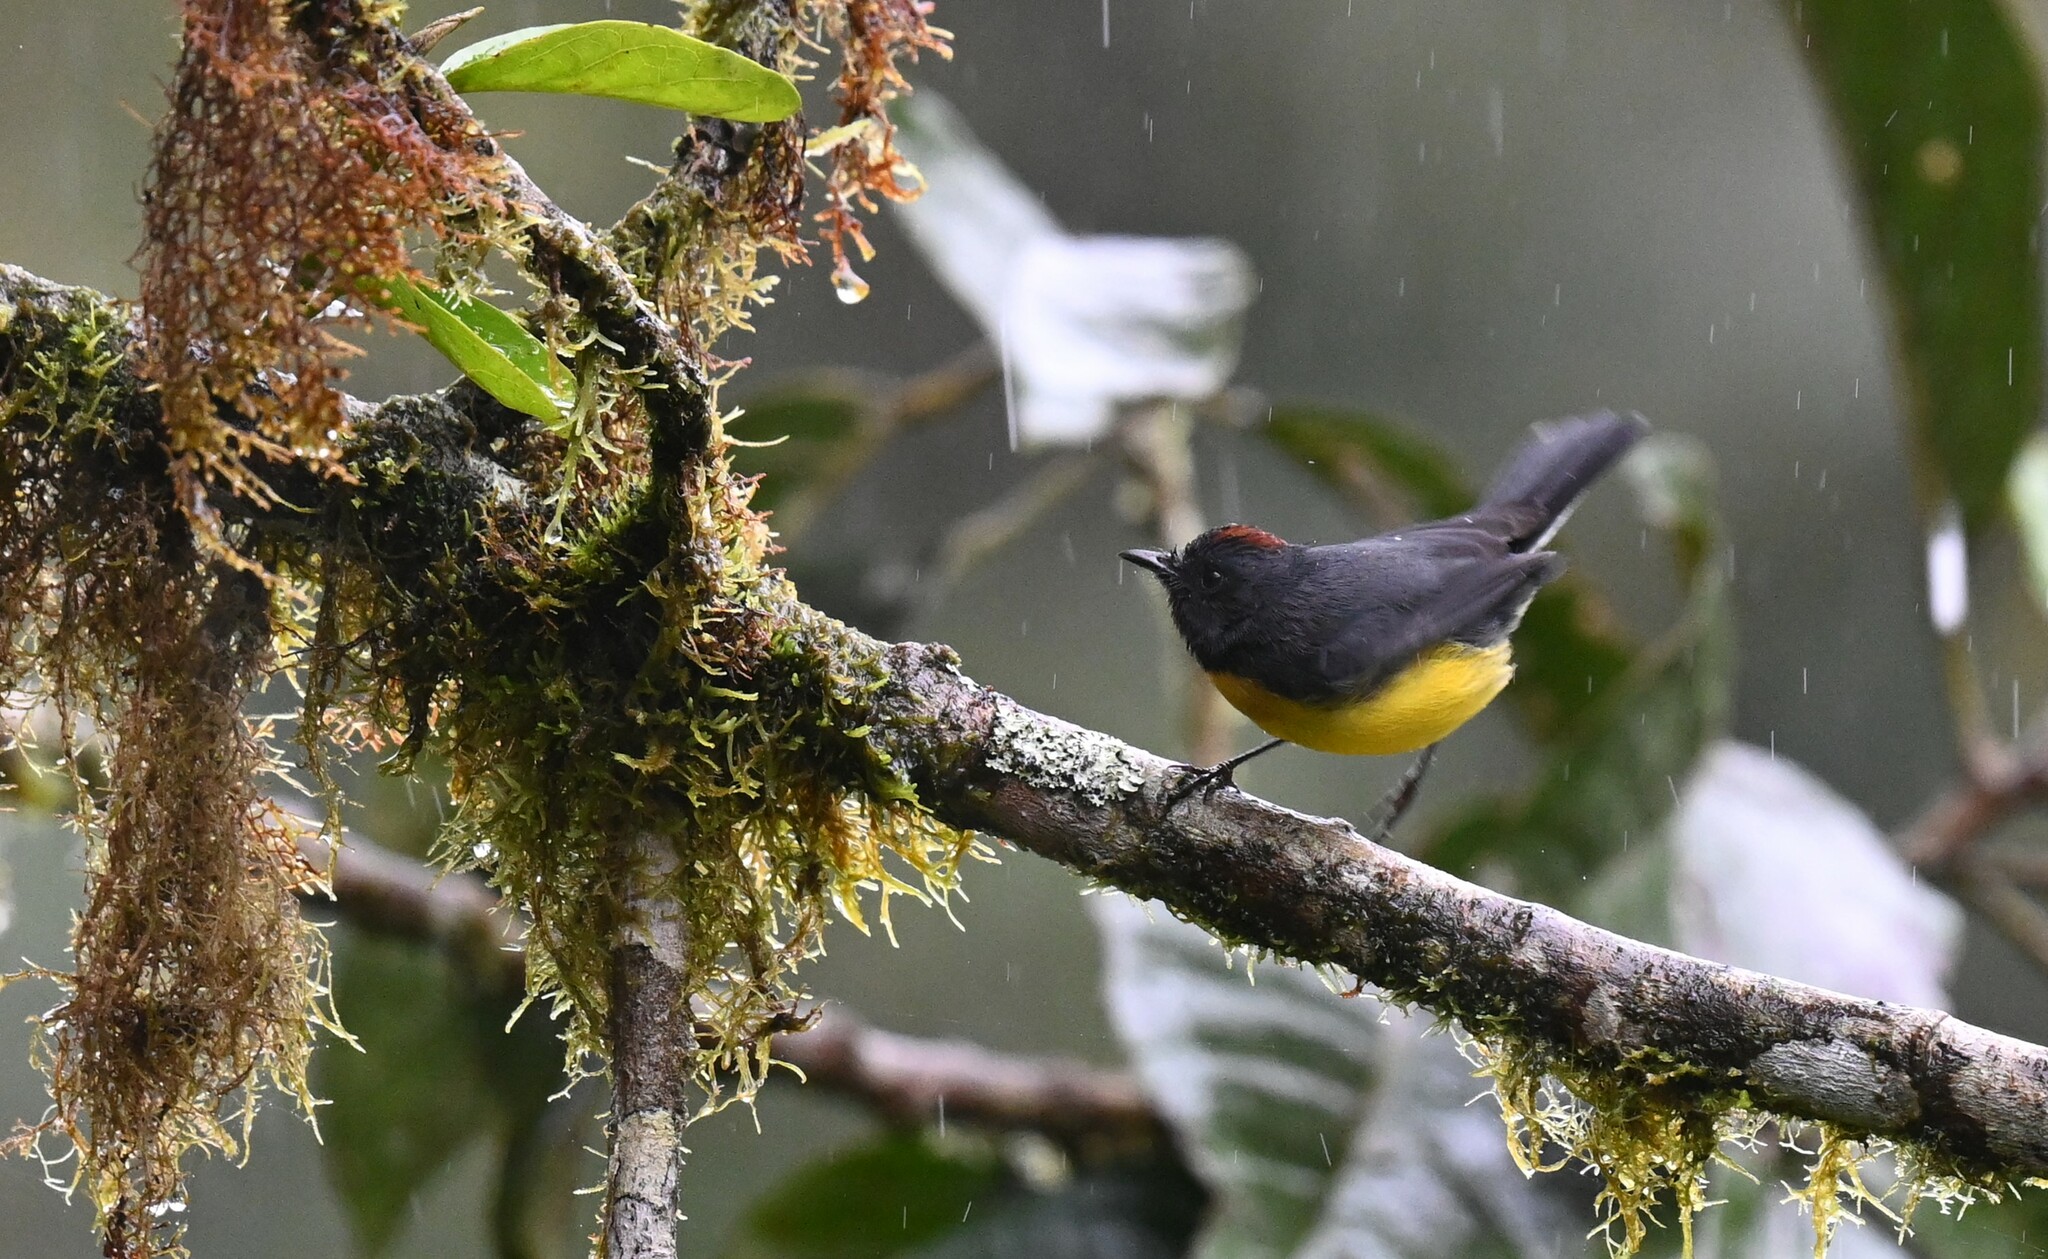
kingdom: Animalia
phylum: Chordata
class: Aves
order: Passeriformes
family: Parulidae
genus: Myioborus
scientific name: Myioborus miniatus
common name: Slate-throated redstart
